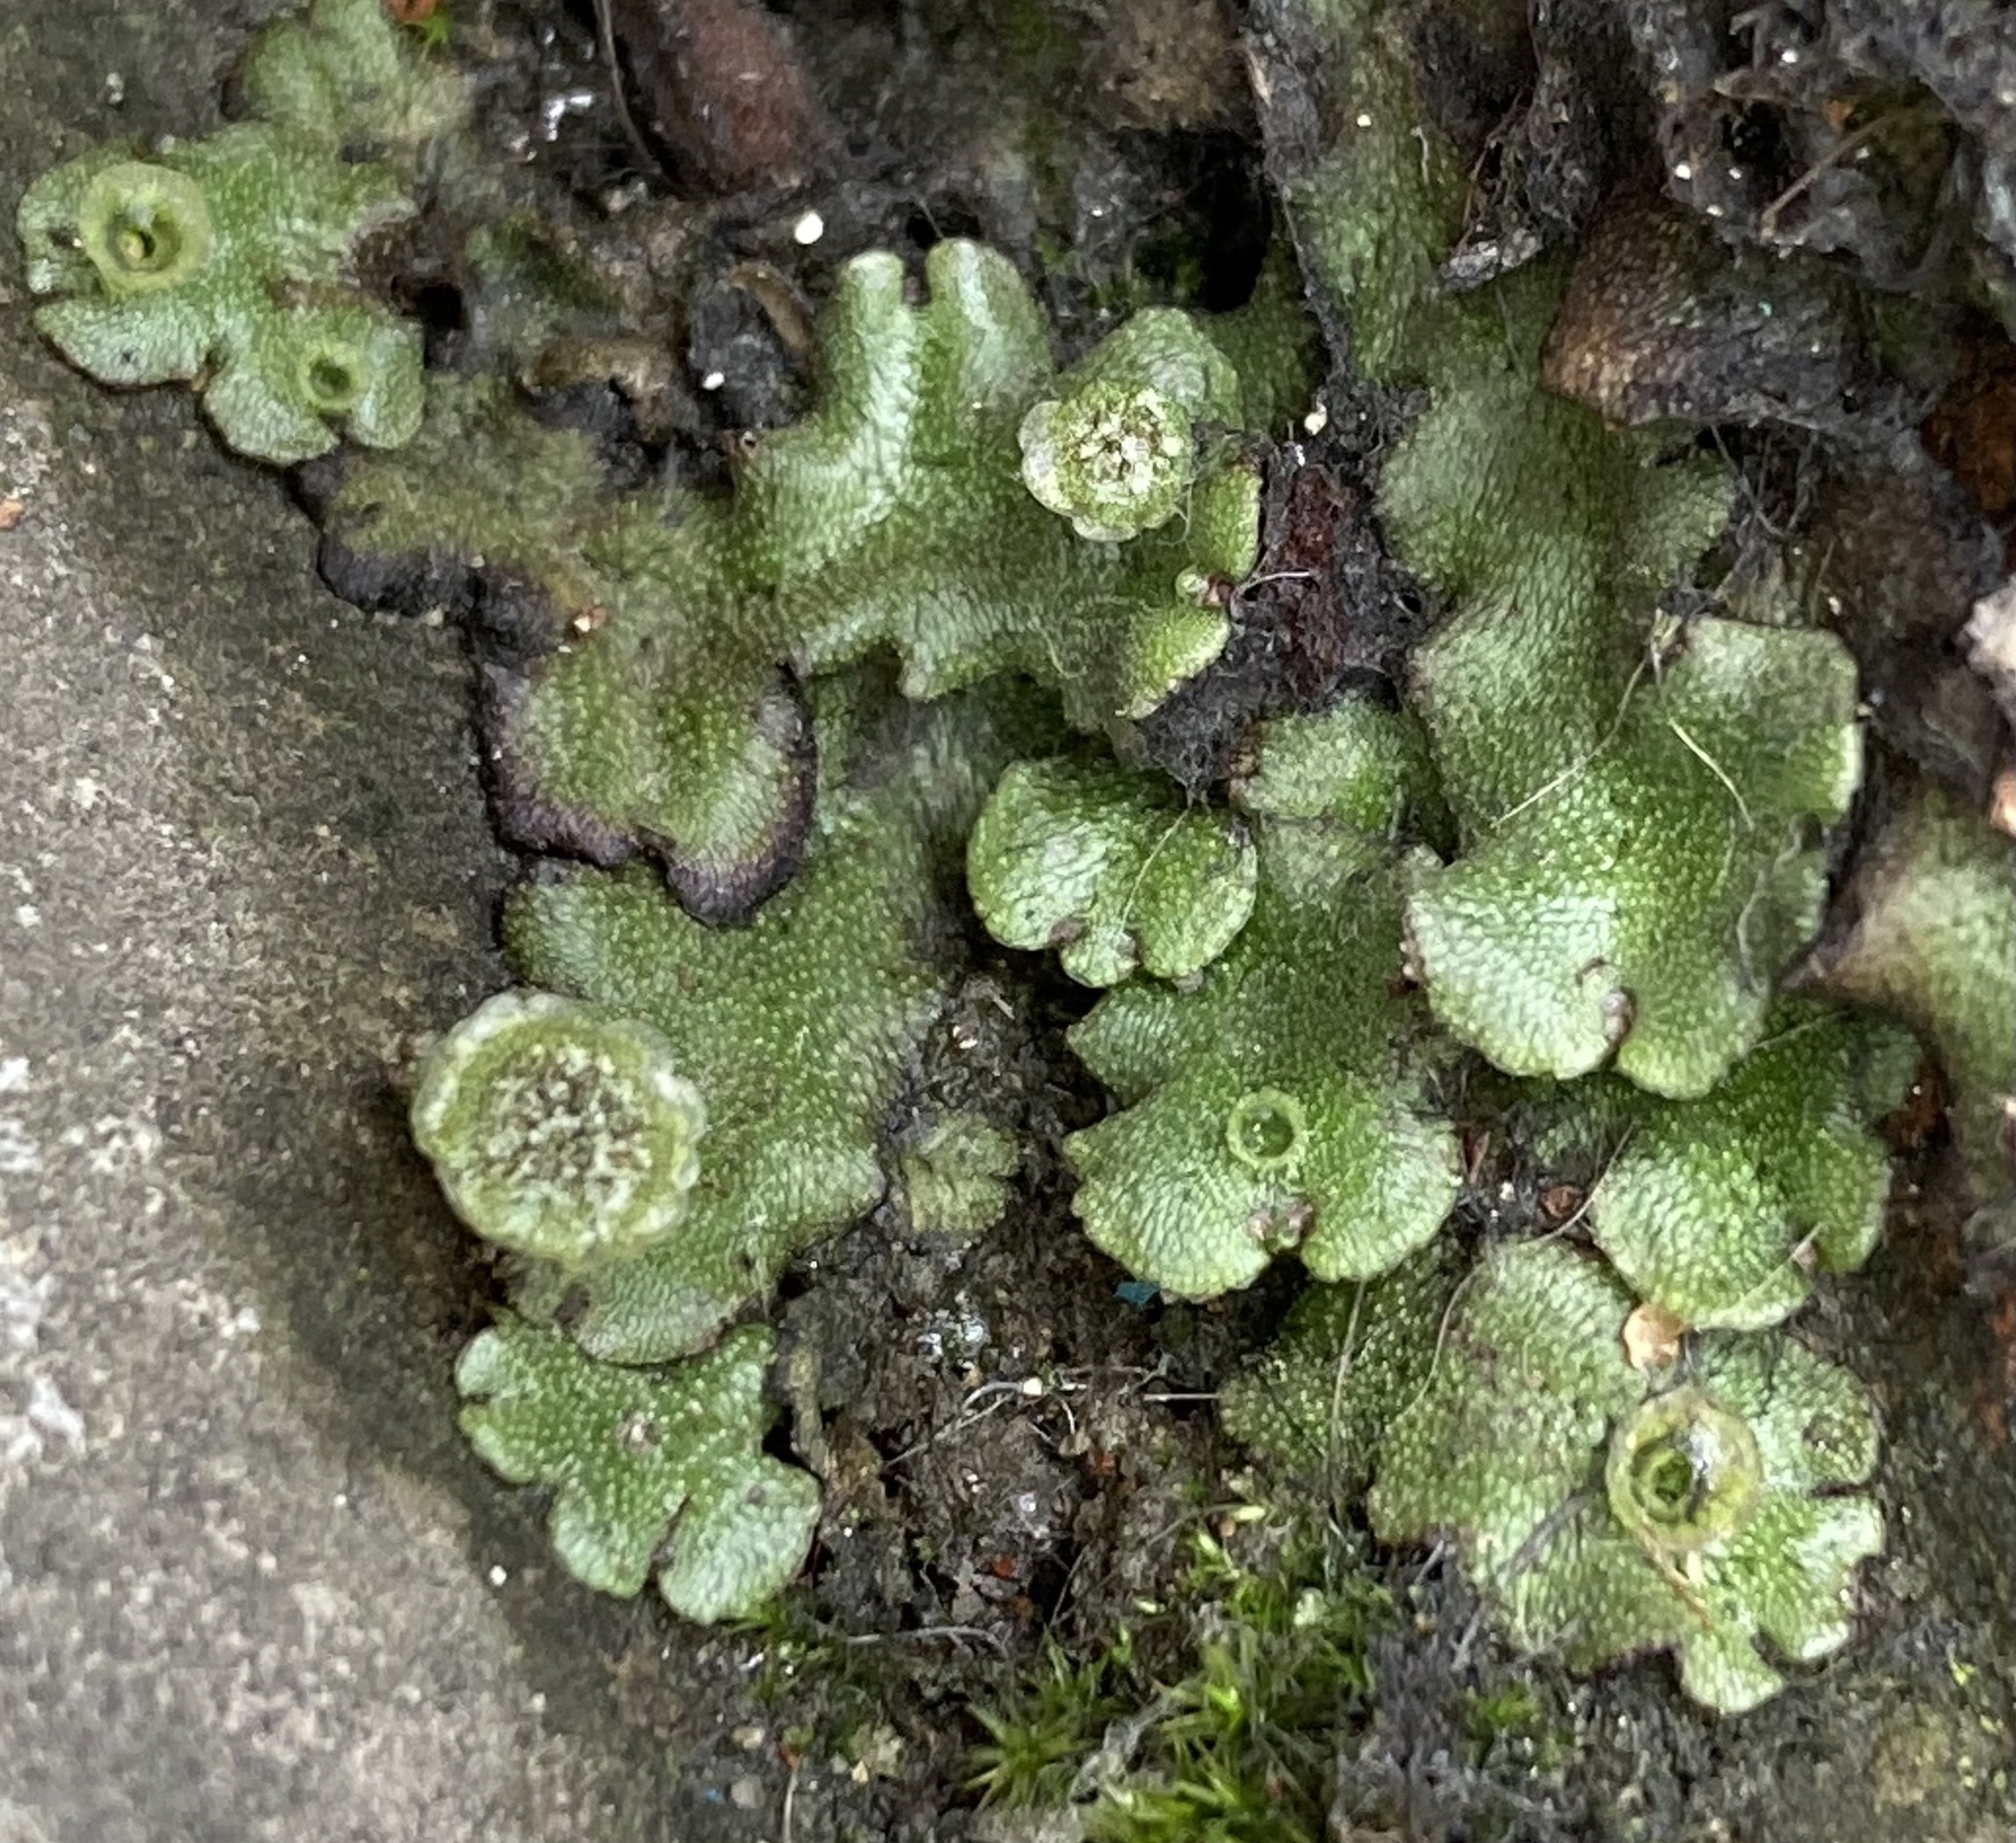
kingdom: Plantae
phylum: Marchantiophyta
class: Marchantiopsida
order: Marchantiales
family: Marchantiaceae
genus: Marchantia
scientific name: Marchantia polymorpha
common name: Common liverwort
